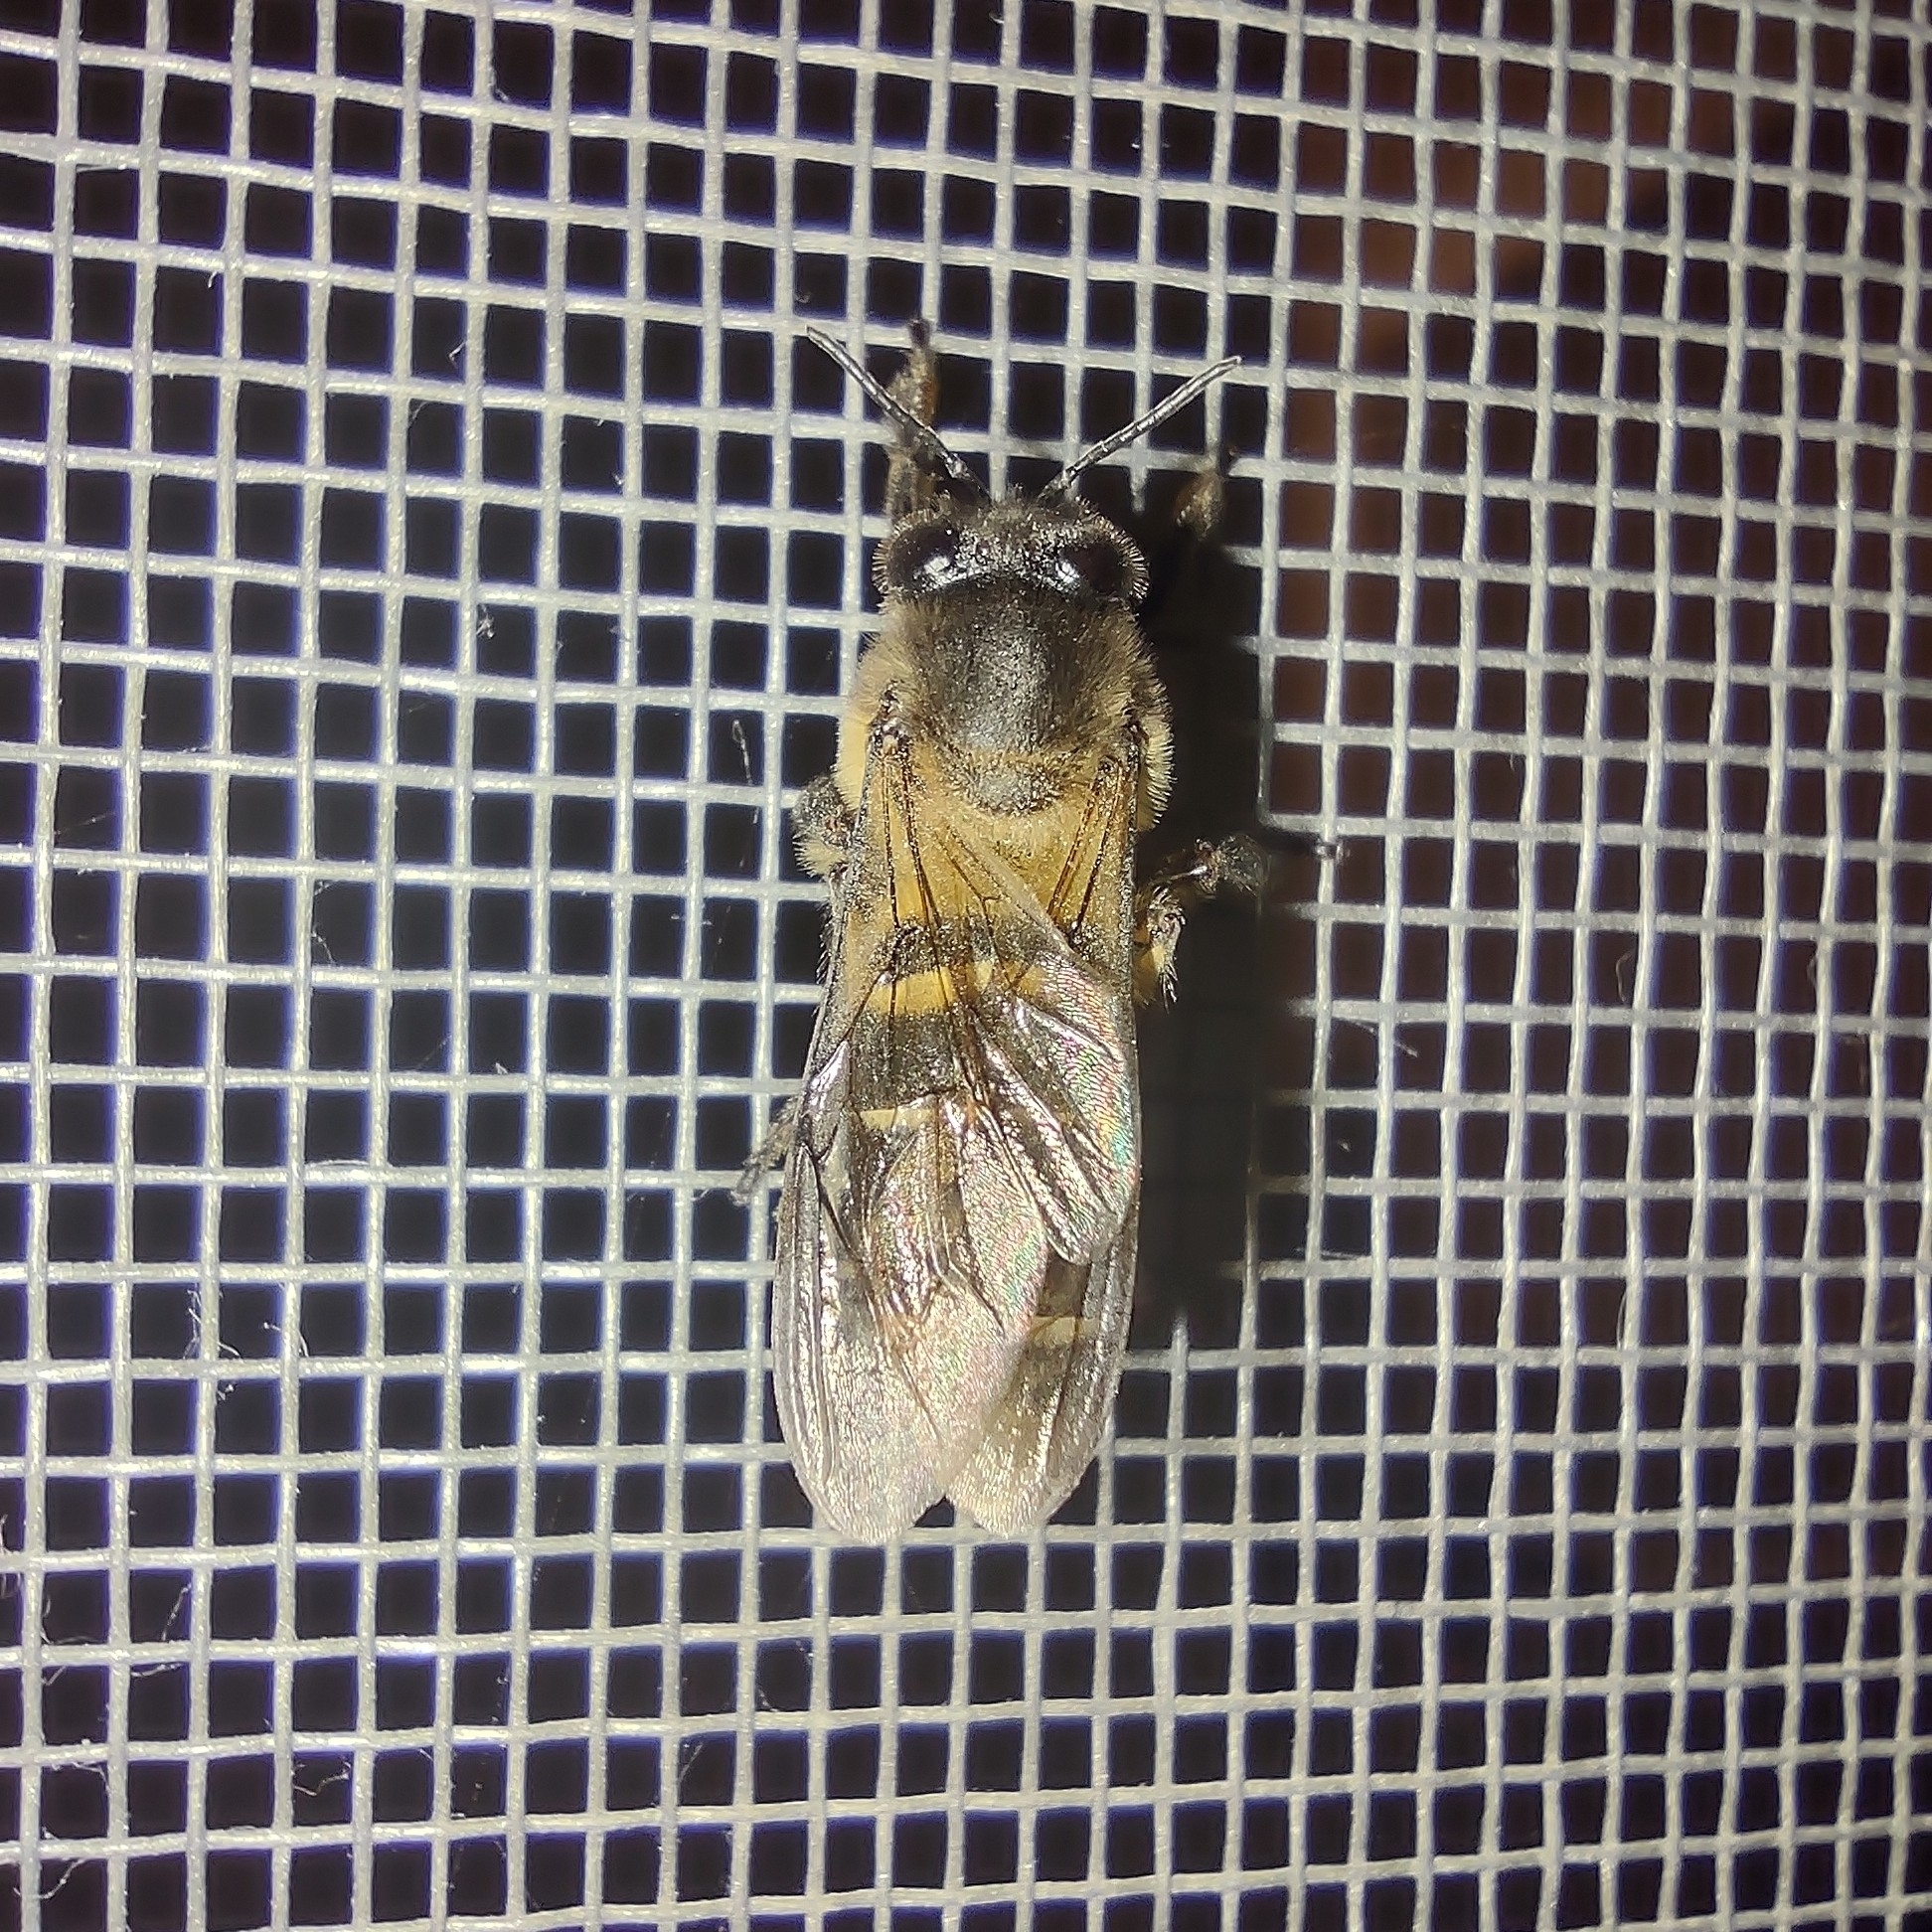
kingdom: Animalia
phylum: Arthropoda
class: Insecta
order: Hymenoptera
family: Apidae
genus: Apis
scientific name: Apis dorsata
